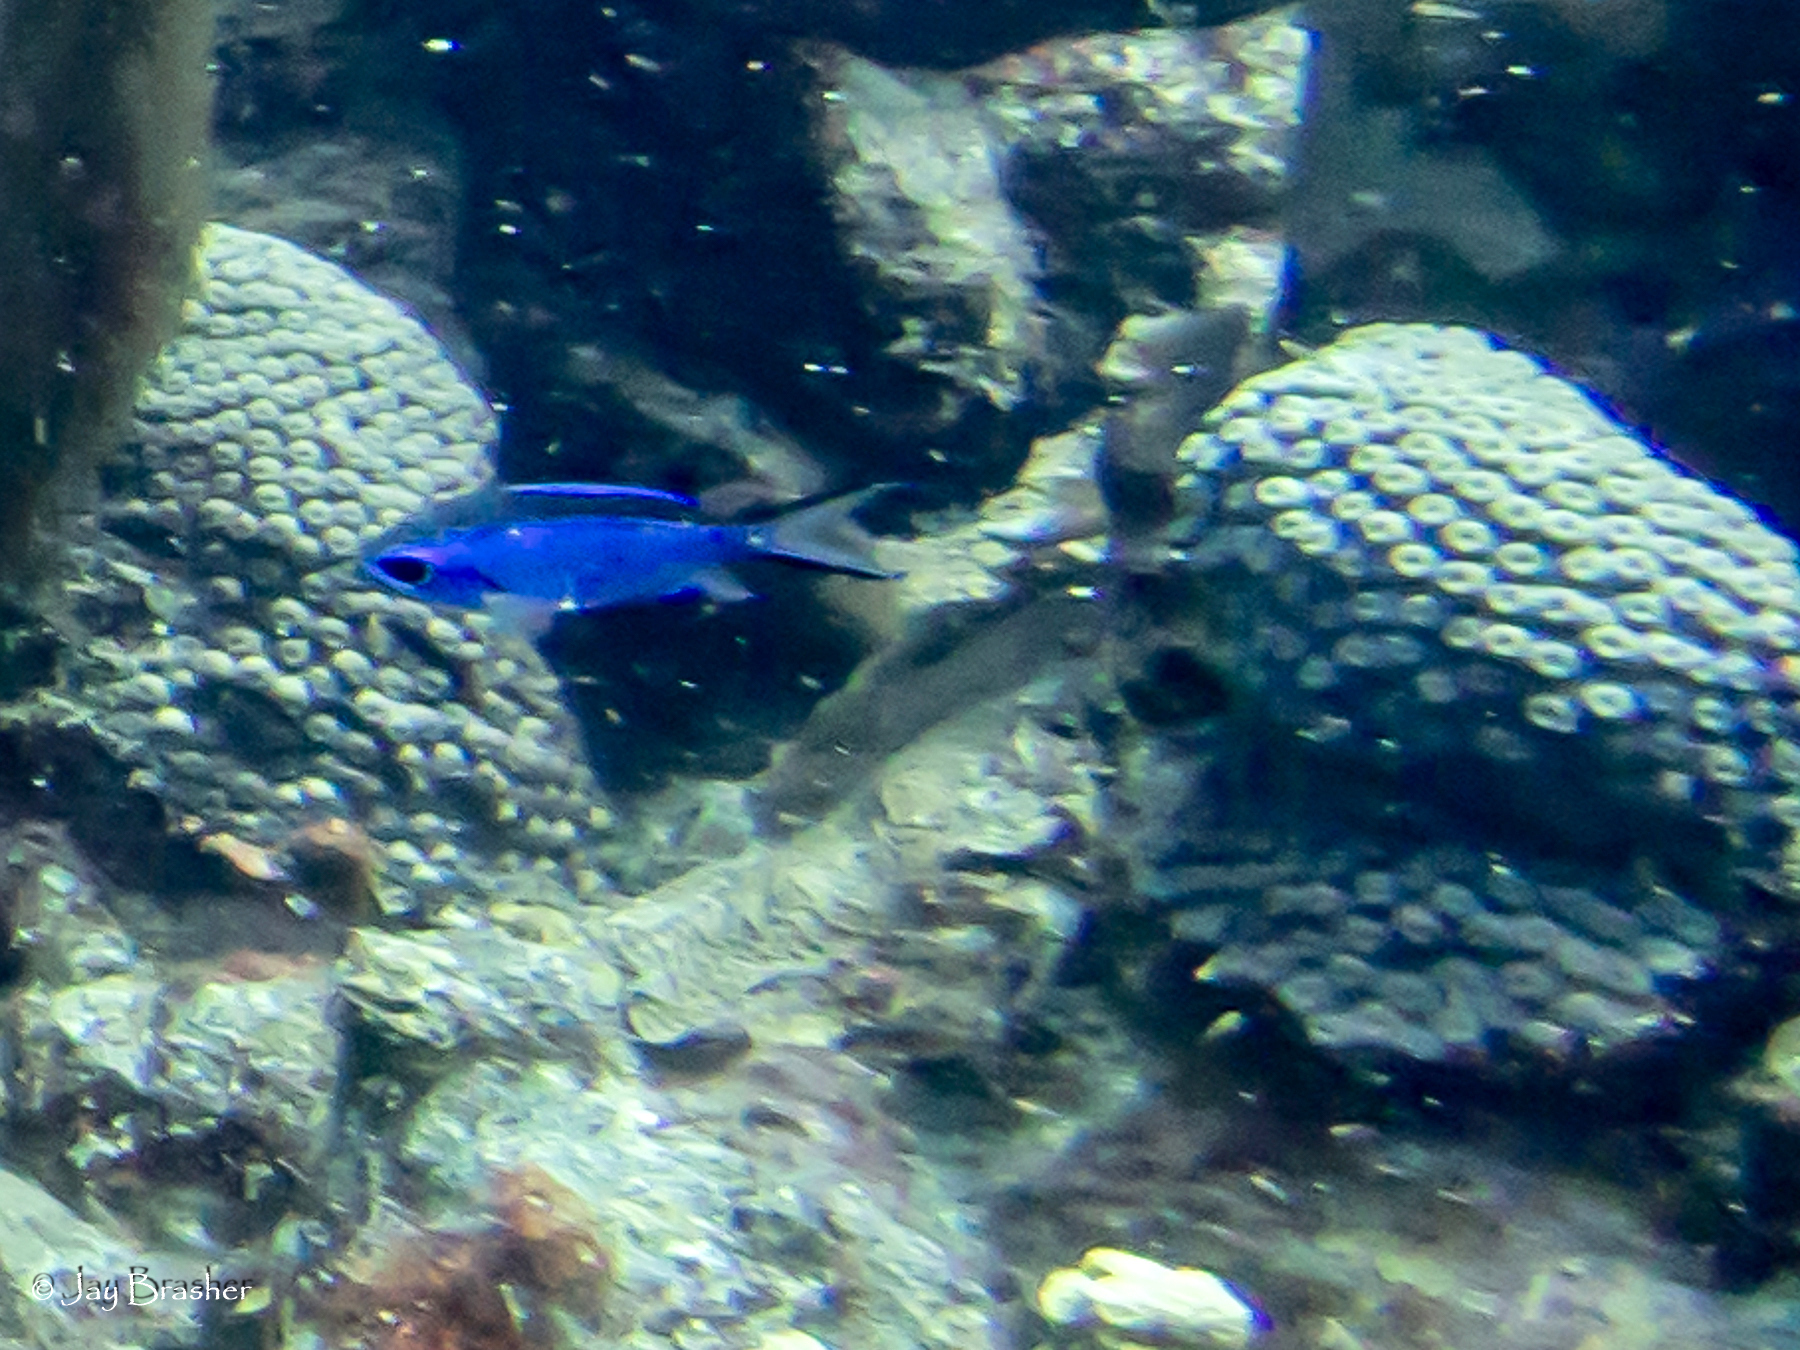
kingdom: Animalia
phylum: Chordata
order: Perciformes
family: Pomacentridae
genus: Chromis
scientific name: Chromis cyanea
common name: Blue chromis
